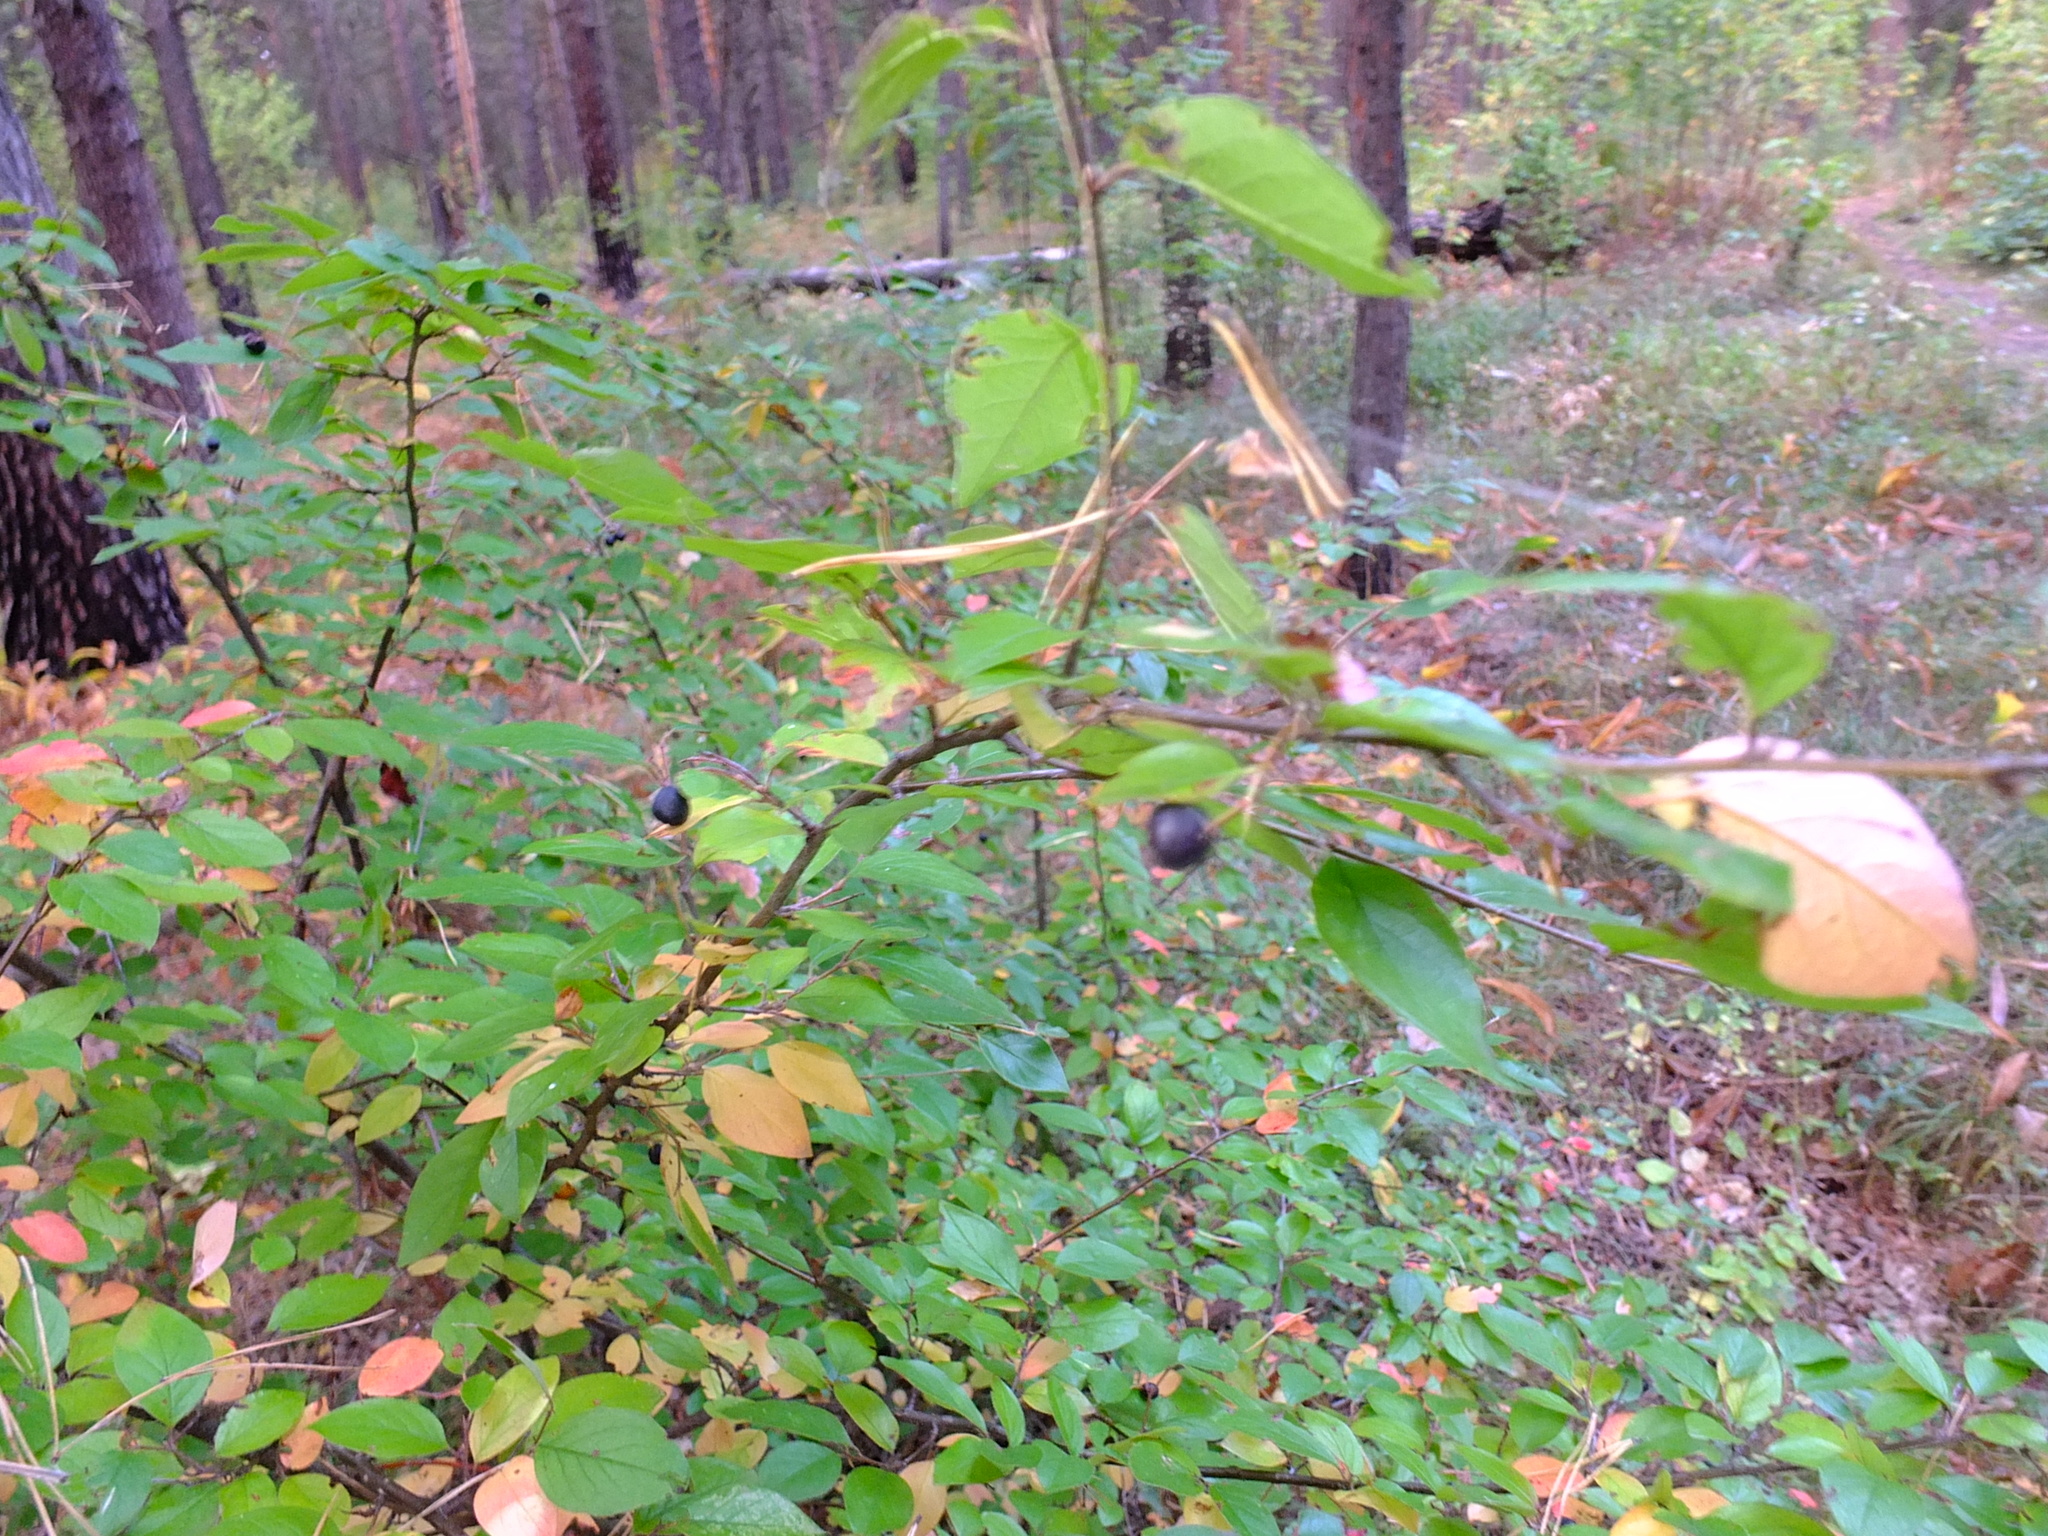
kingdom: Plantae
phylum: Tracheophyta
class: Magnoliopsida
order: Rosales
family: Rosaceae
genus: Cotoneaster
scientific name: Cotoneaster acutifolius
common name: Peking cotoneaster
